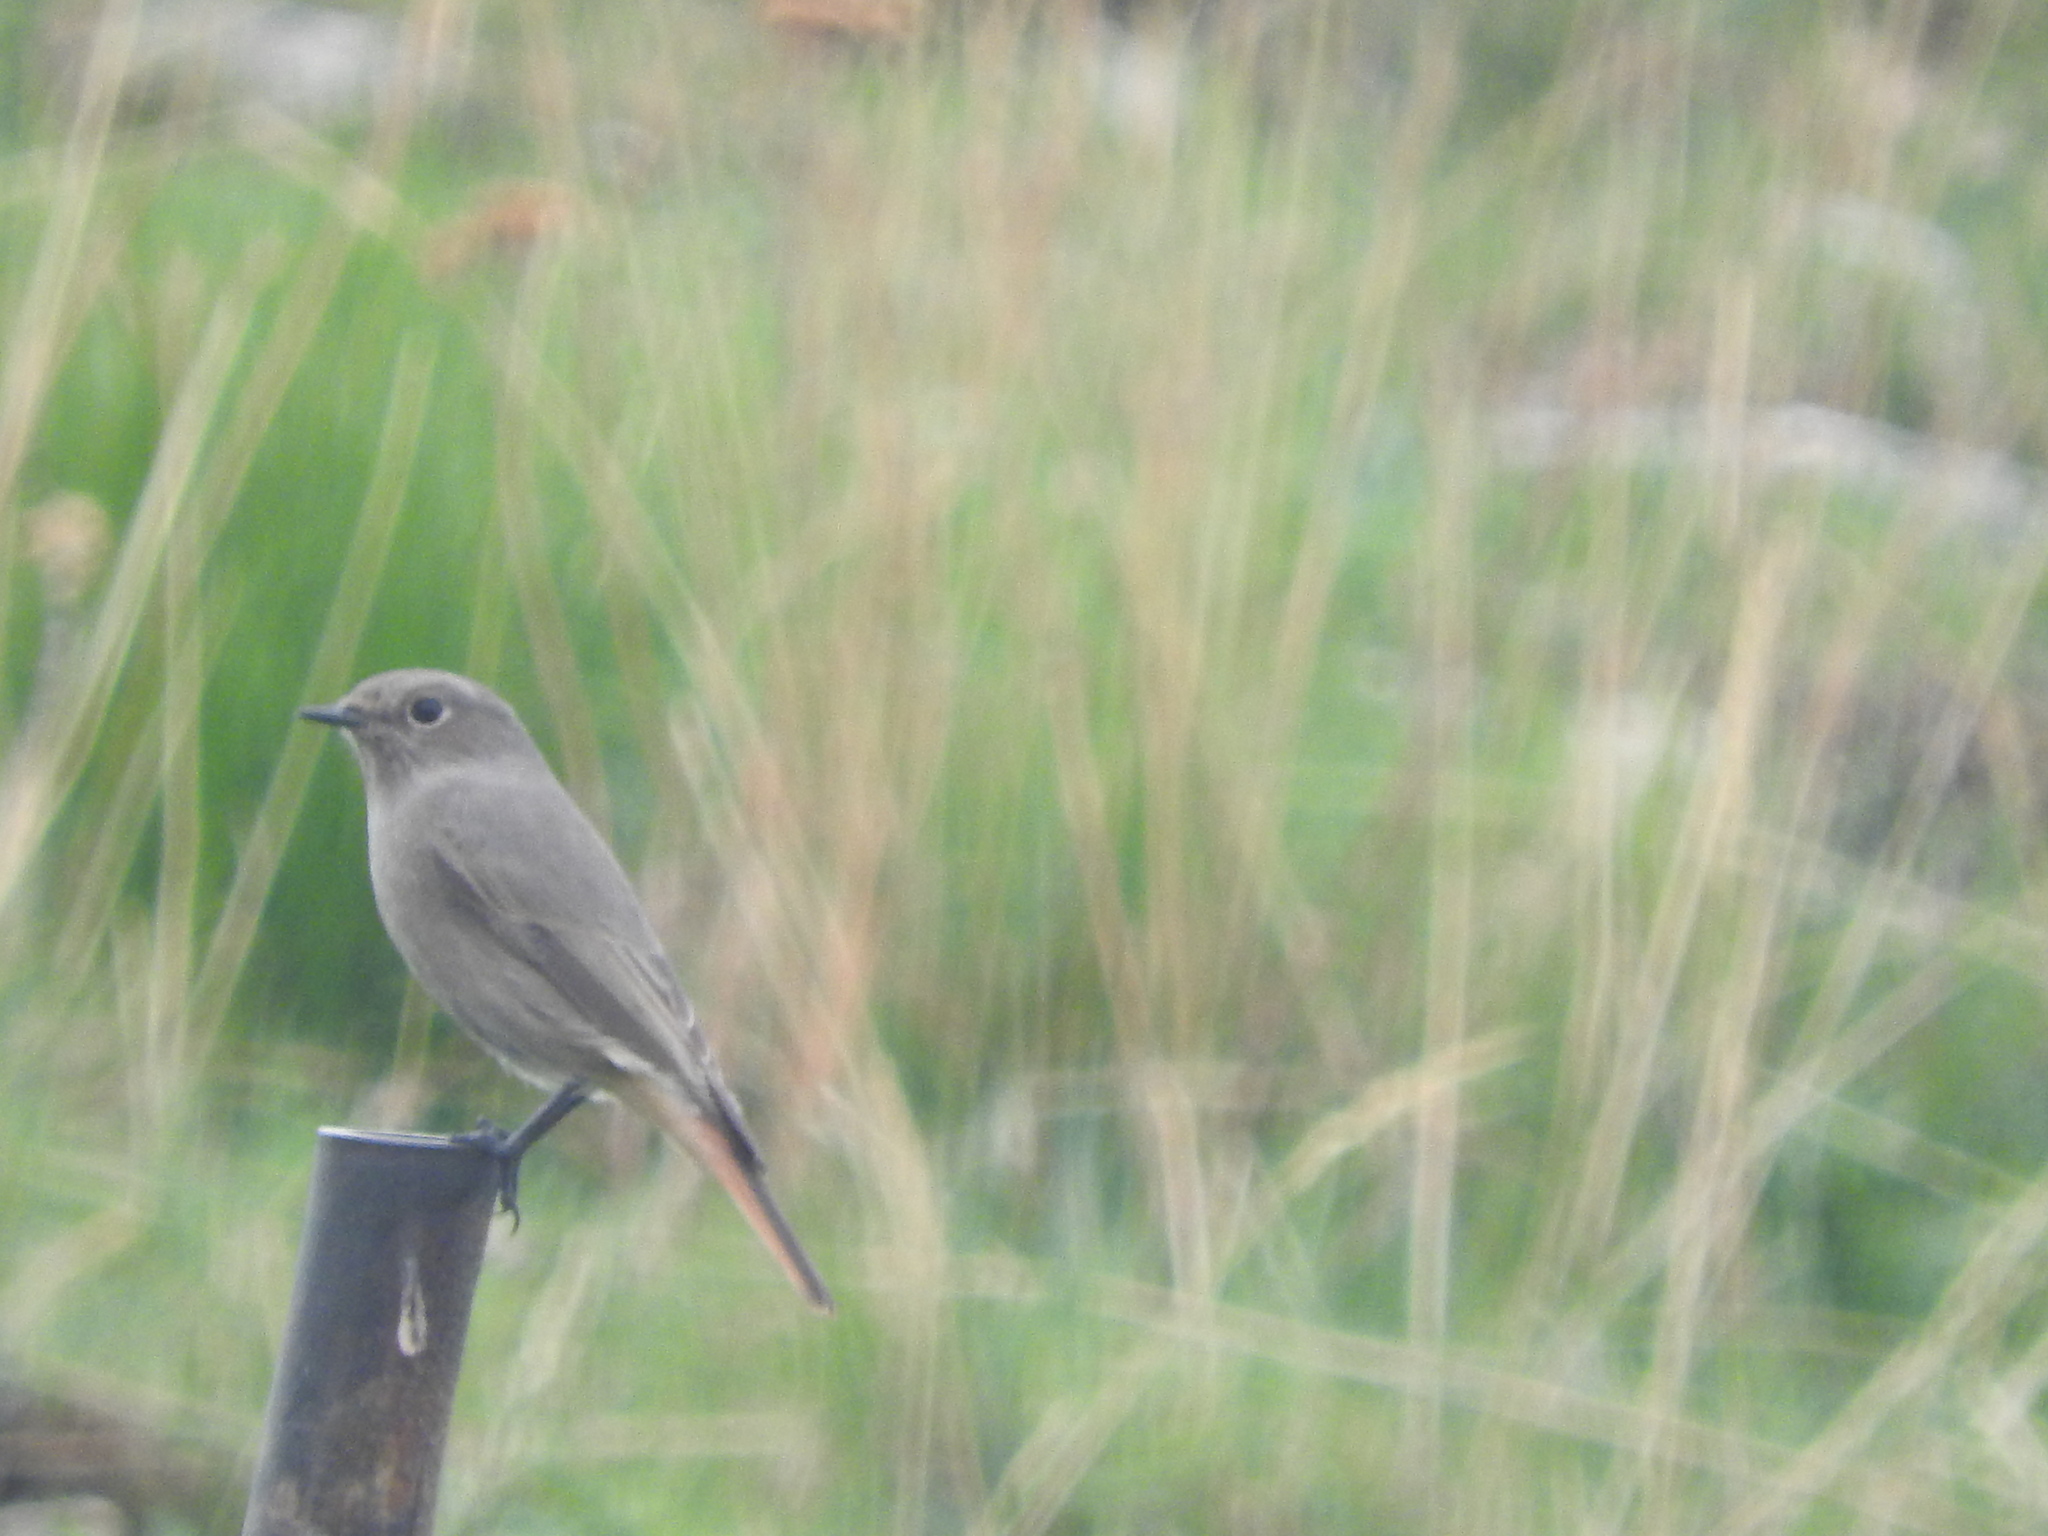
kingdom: Animalia
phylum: Chordata
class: Aves
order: Passeriformes
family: Muscicapidae
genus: Phoenicurus
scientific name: Phoenicurus ochruros
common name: Black redstart
